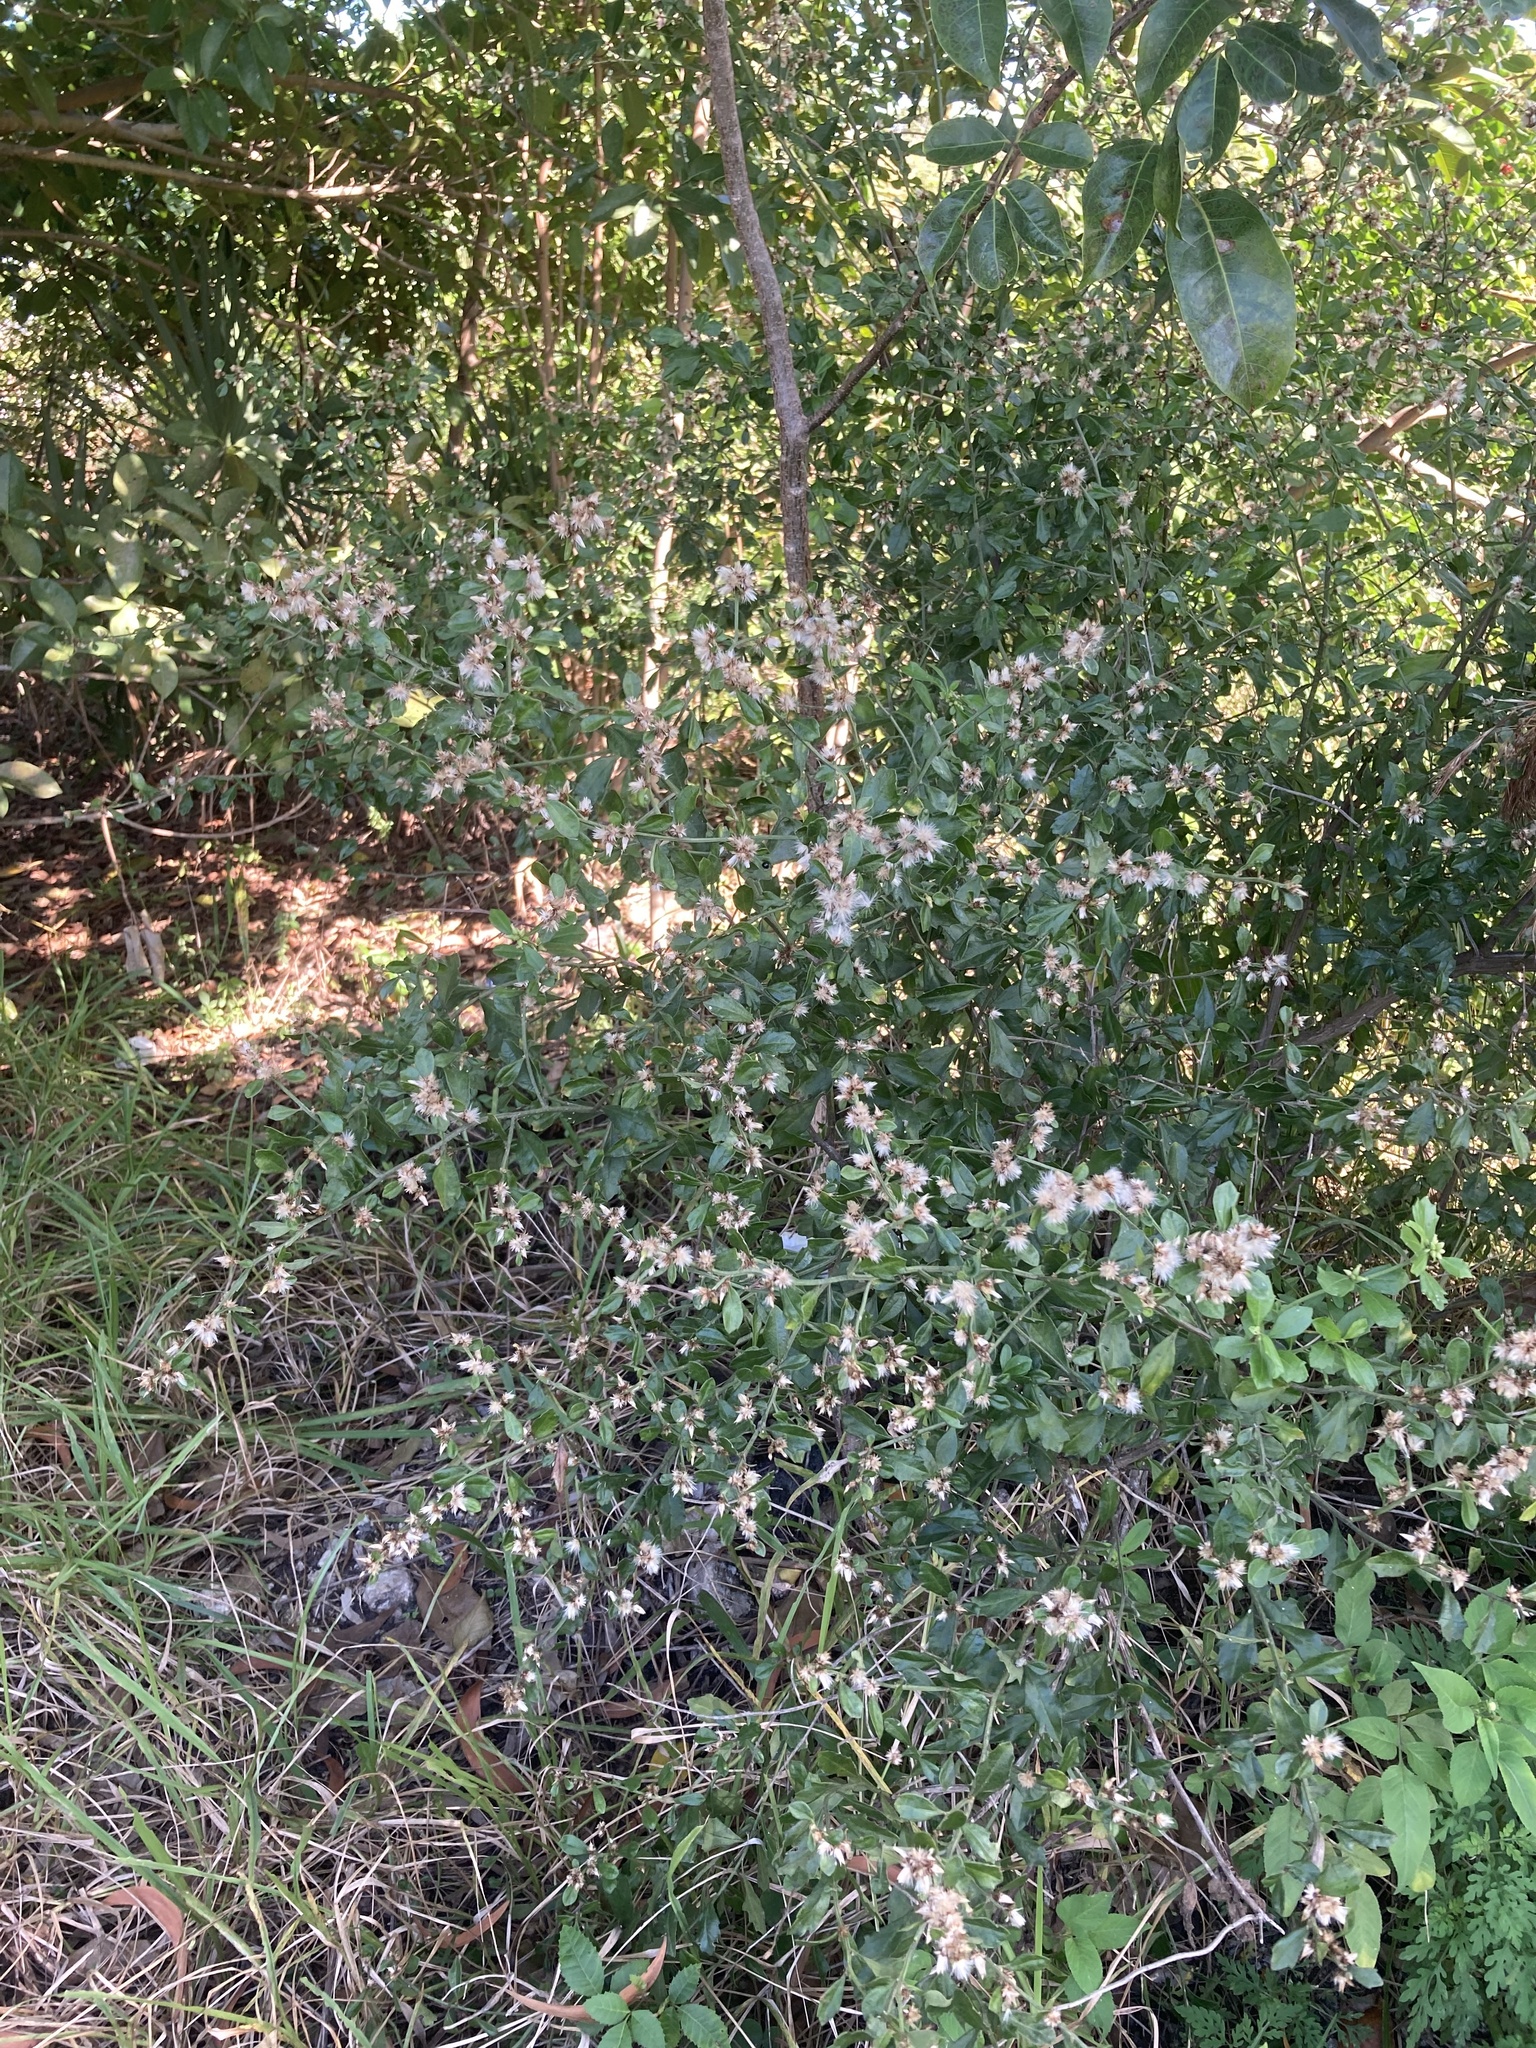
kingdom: Plantae
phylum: Tracheophyta
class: Magnoliopsida
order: Asterales
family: Asteraceae
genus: Baccharis
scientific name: Baccharis glomeruliflora
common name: Silverling groundsel bush
